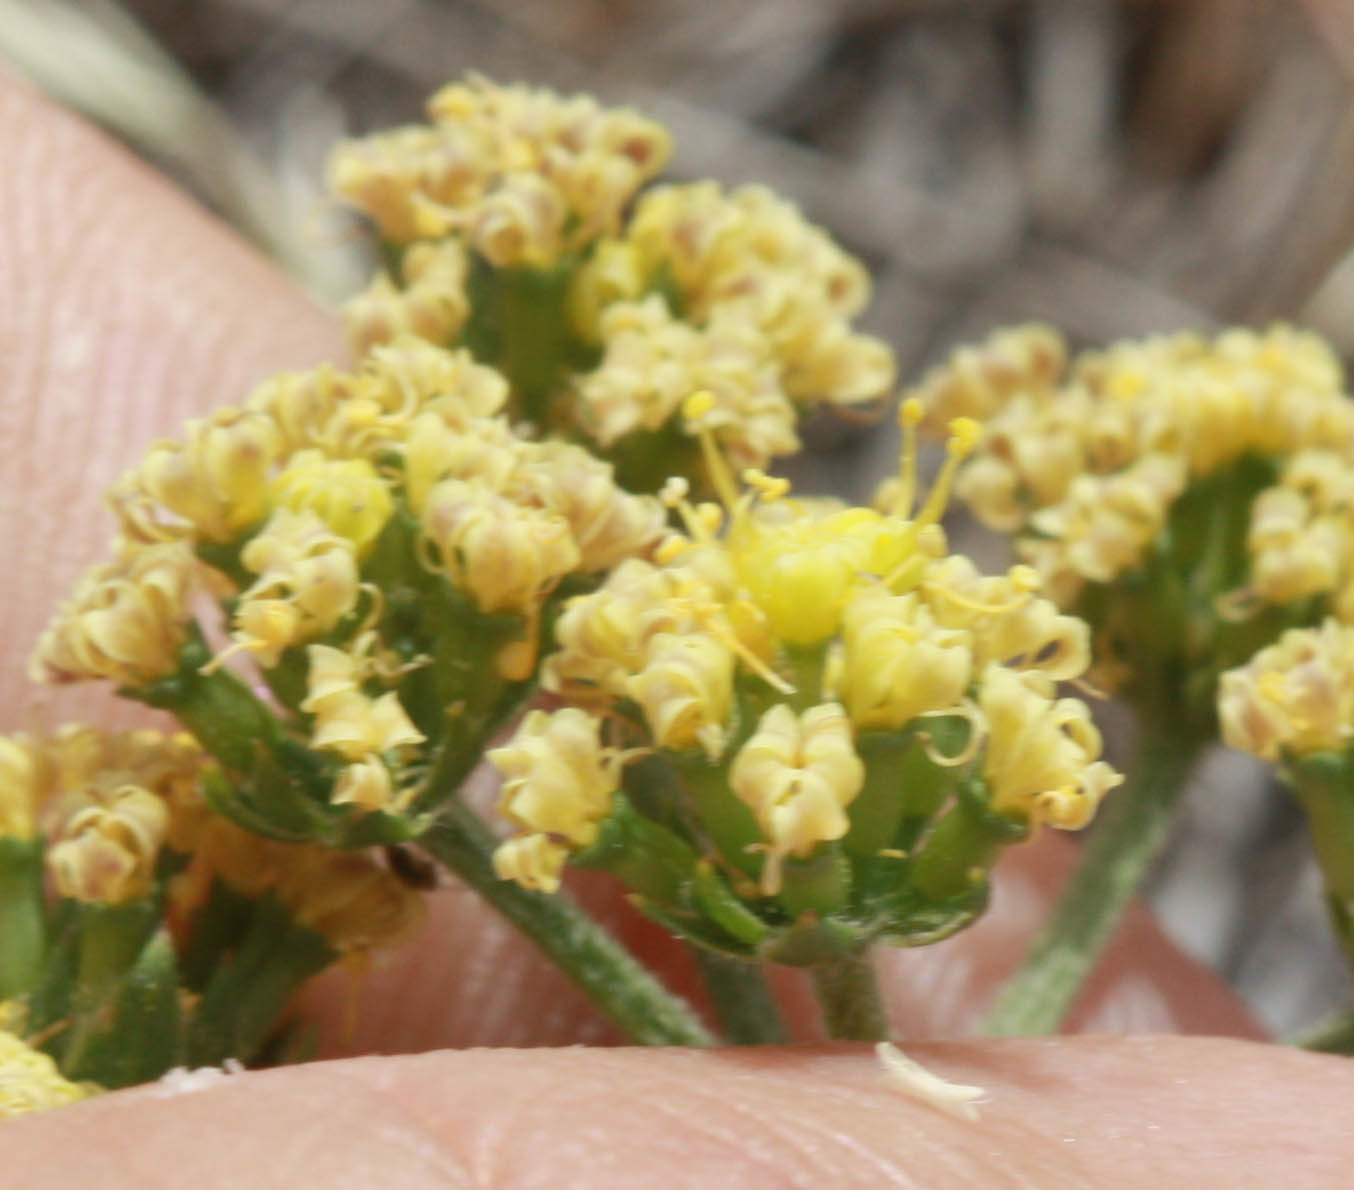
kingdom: Plantae
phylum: Tracheophyta
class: Magnoliopsida
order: Apiales
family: Apiaceae
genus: Lomatium
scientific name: Lomatium macrocarpum
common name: Big-seed biscuitroot
